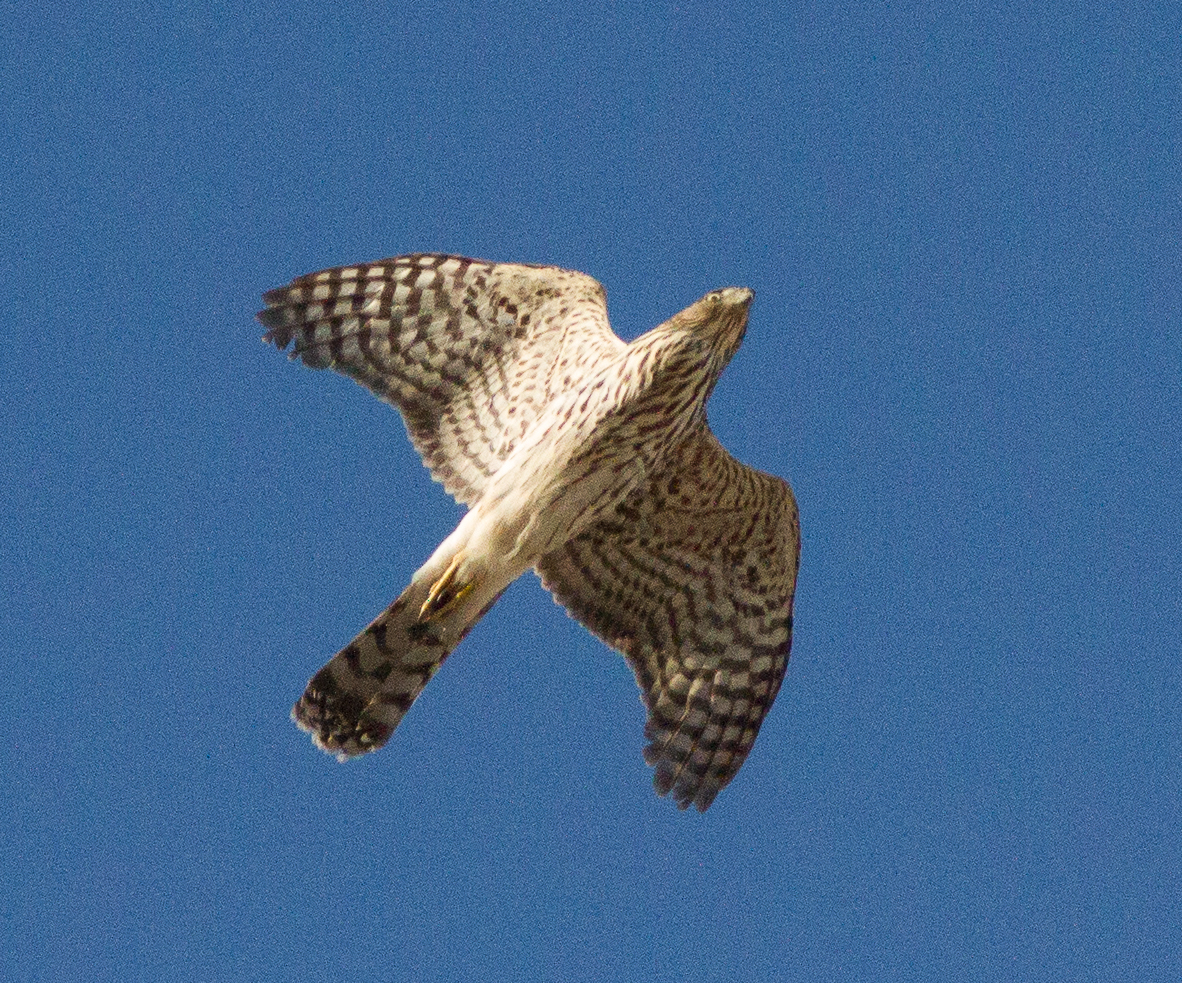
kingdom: Animalia
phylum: Chordata
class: Aves
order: Accipitriformes
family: Accipitridae
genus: Accipiter
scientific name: Accipiter cooperii
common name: Cooper's hawk
